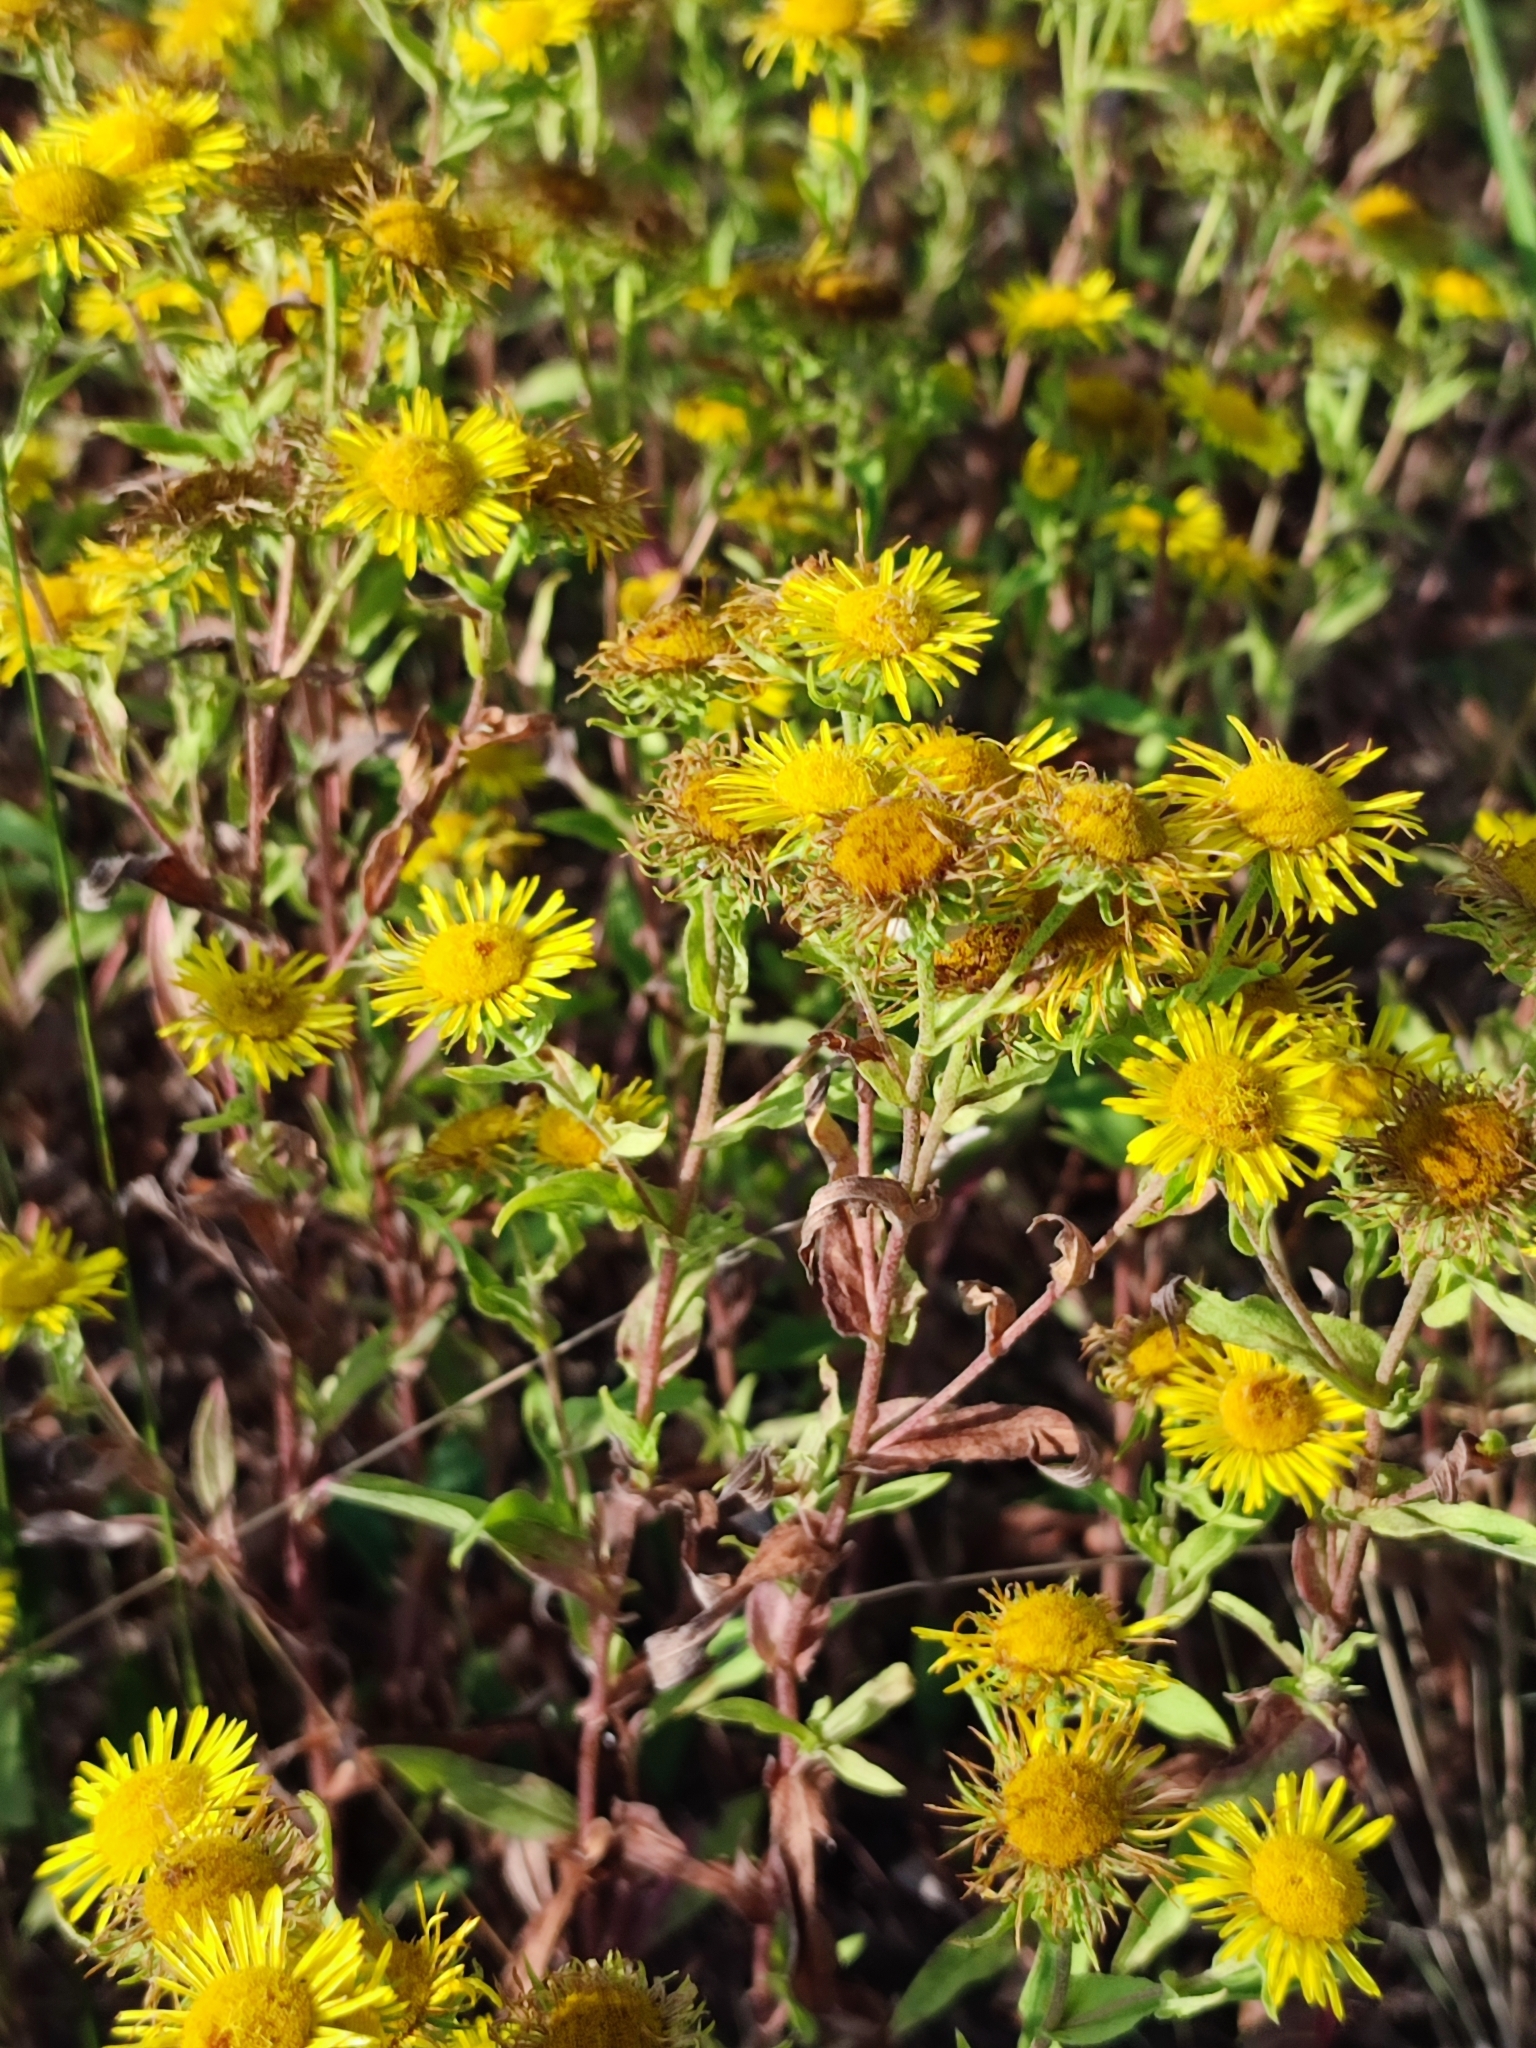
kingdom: Plantae
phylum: Tracheophyta
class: Magnoliopsida
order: Asterales
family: Asteraceae
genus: Pentanema
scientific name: Pentanema britannicum
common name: British elecampane
